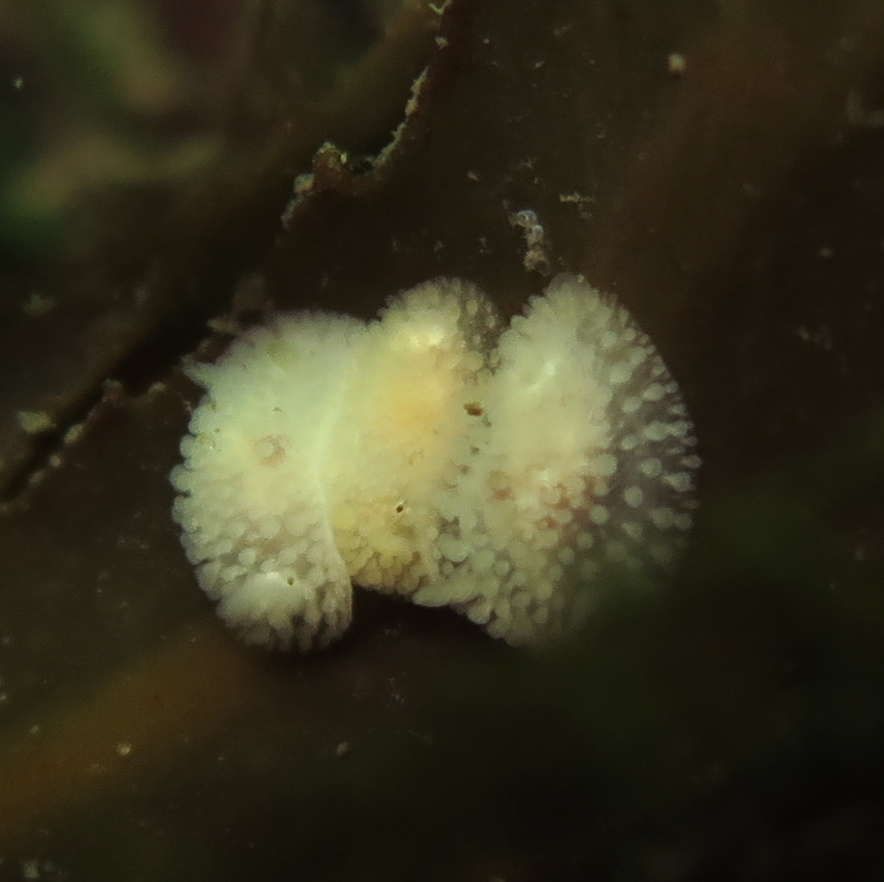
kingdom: Animalia
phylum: Mollusca
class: Gastropoda
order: Nudibranchia
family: Onchidorididae
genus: Onchidoris
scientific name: Onchidoris muricata
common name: Rough doris
